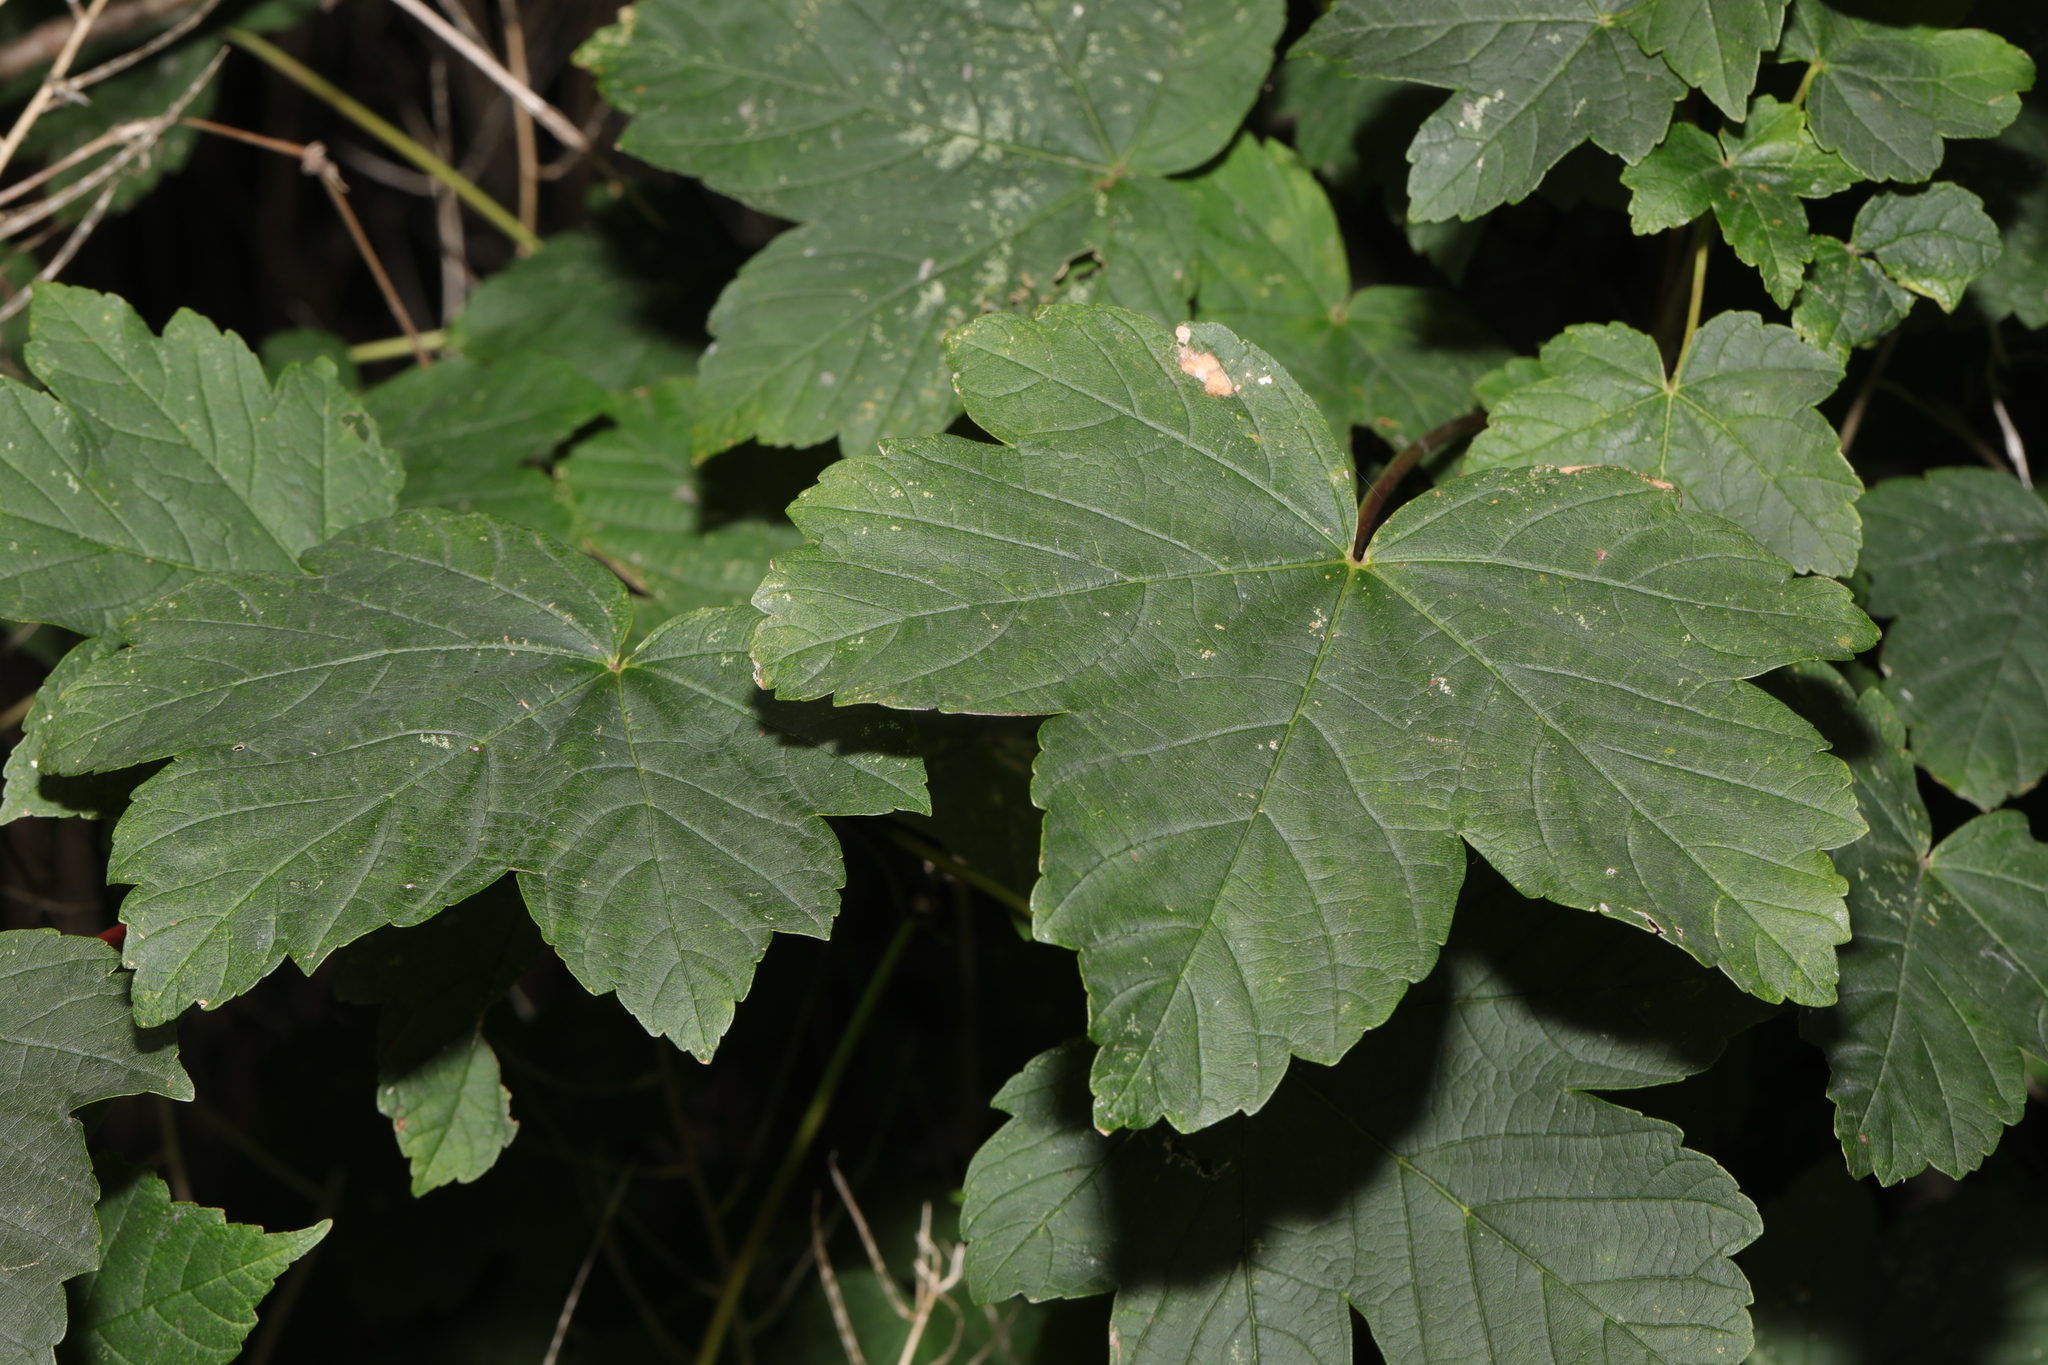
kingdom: Plantae
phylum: Tracheophyta
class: Magnoliopsida
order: Sapindales
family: Sapindaceae
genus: Acer
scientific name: Acer pseudoplatanus
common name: Sycamore
